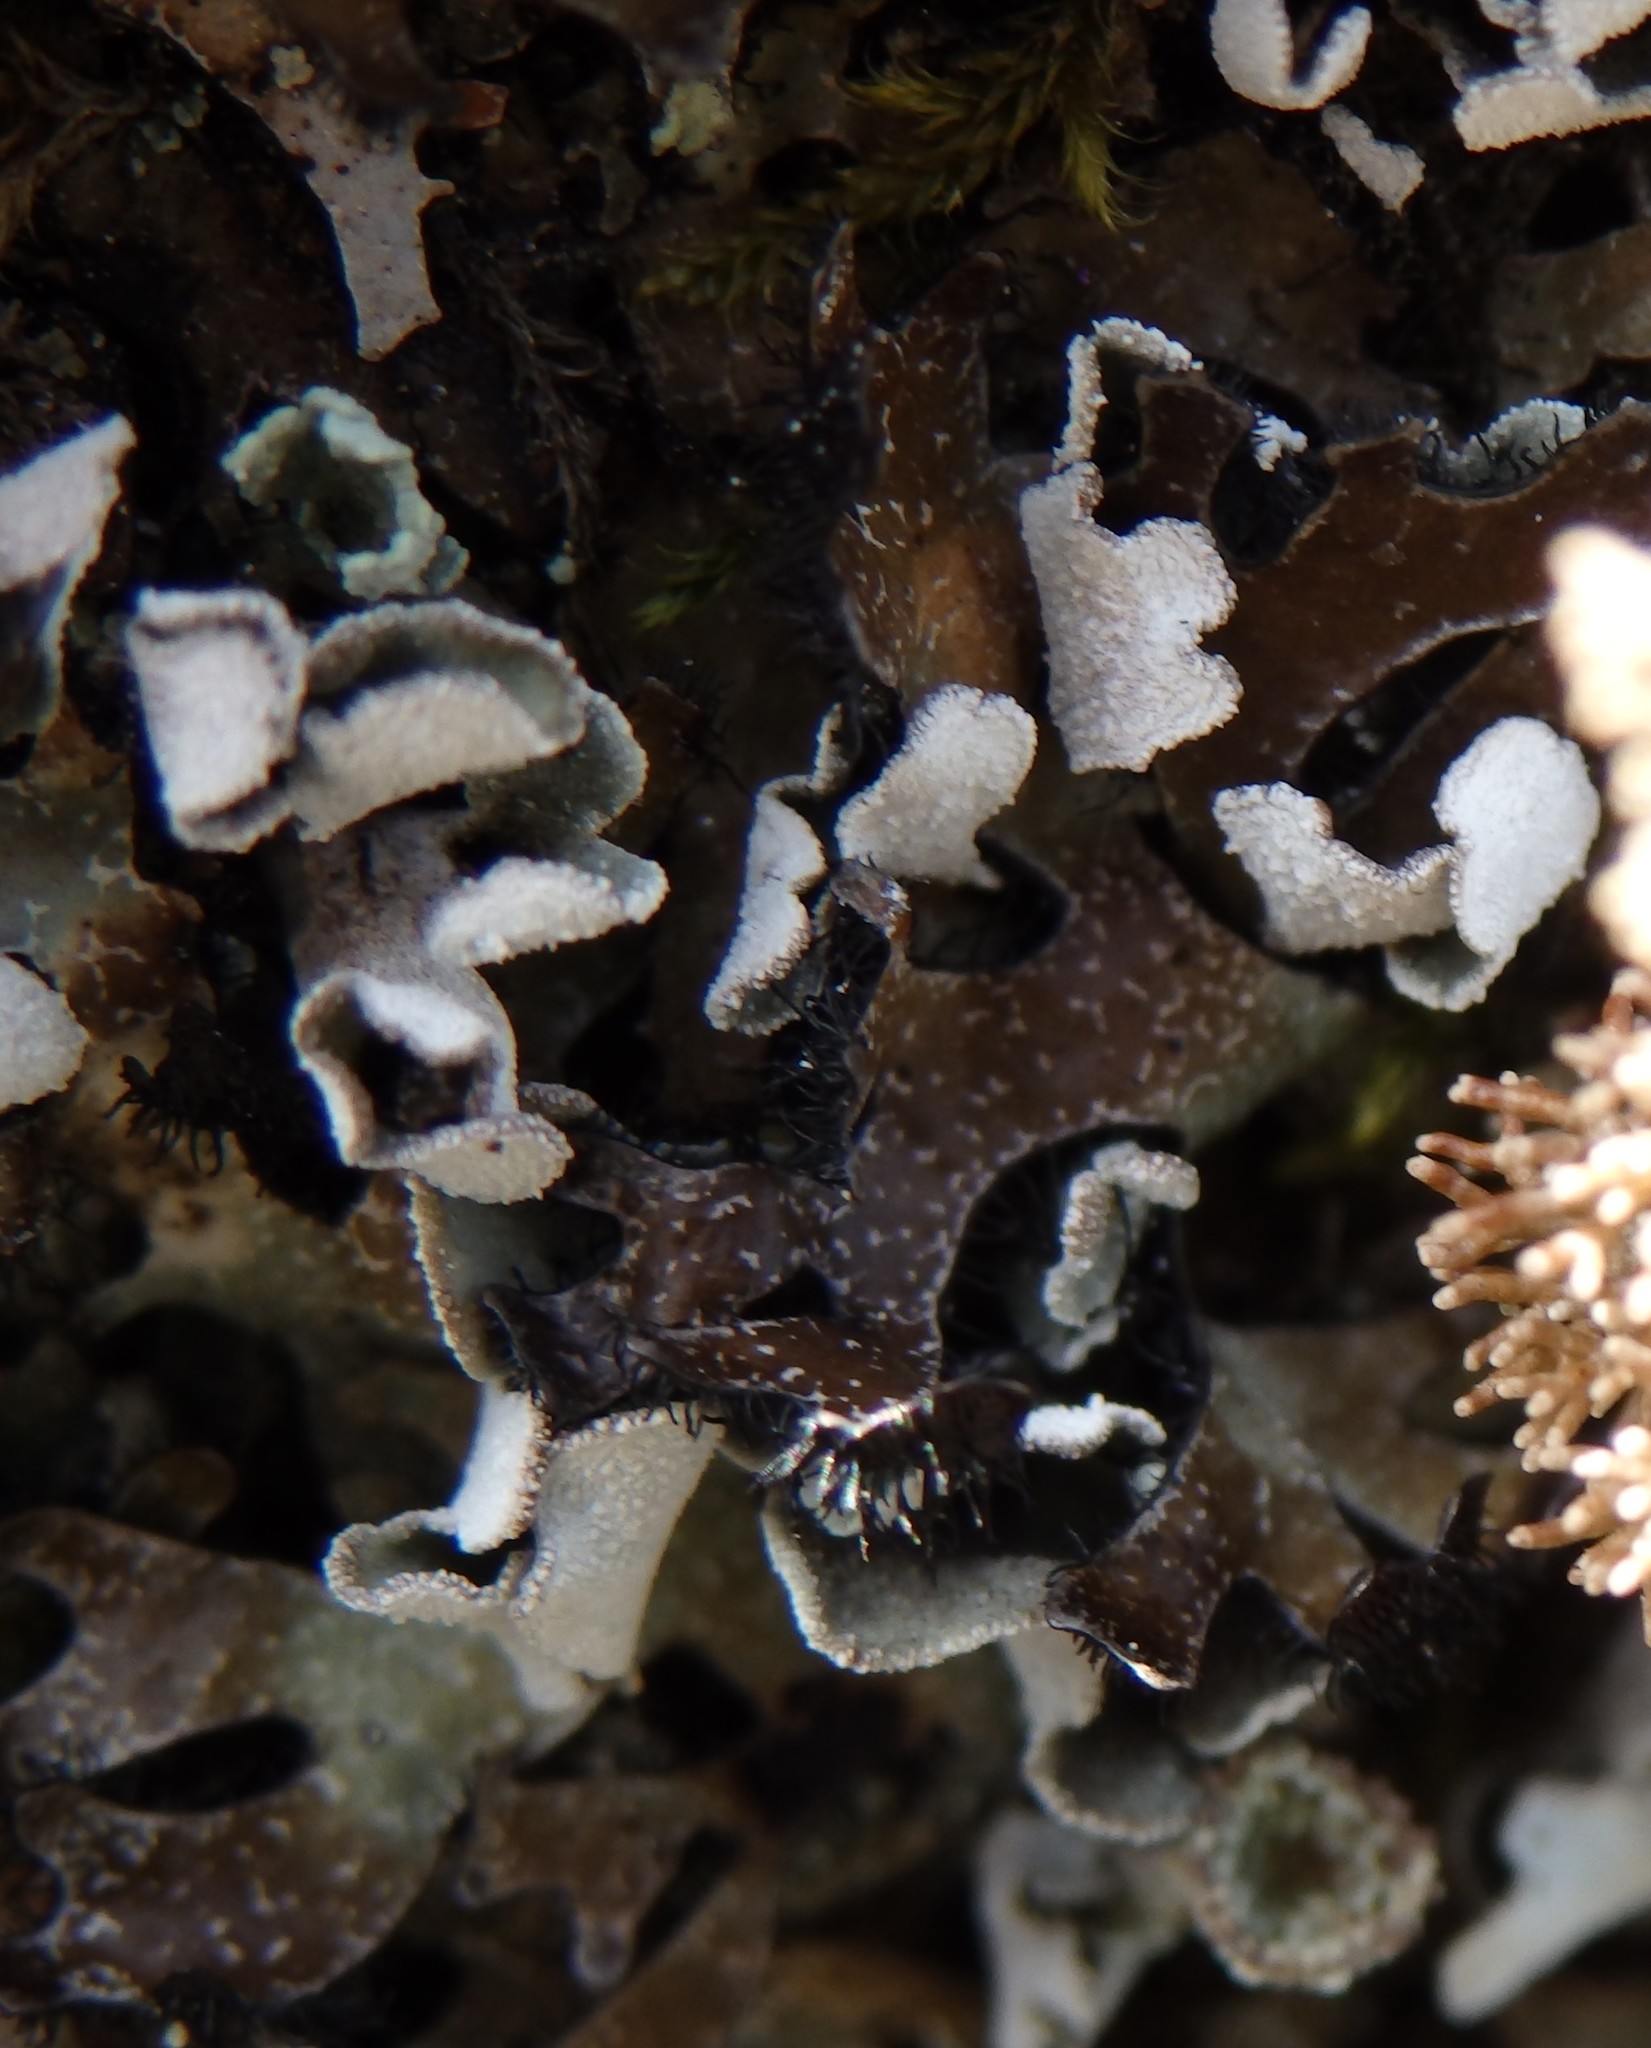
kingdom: Fungi
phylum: Ascomycota
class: Lecanoromycetes
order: Lecanorales
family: Parmeliaceae
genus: Parmelia
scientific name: Parmelia omphalodes
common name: Smoky crottle
